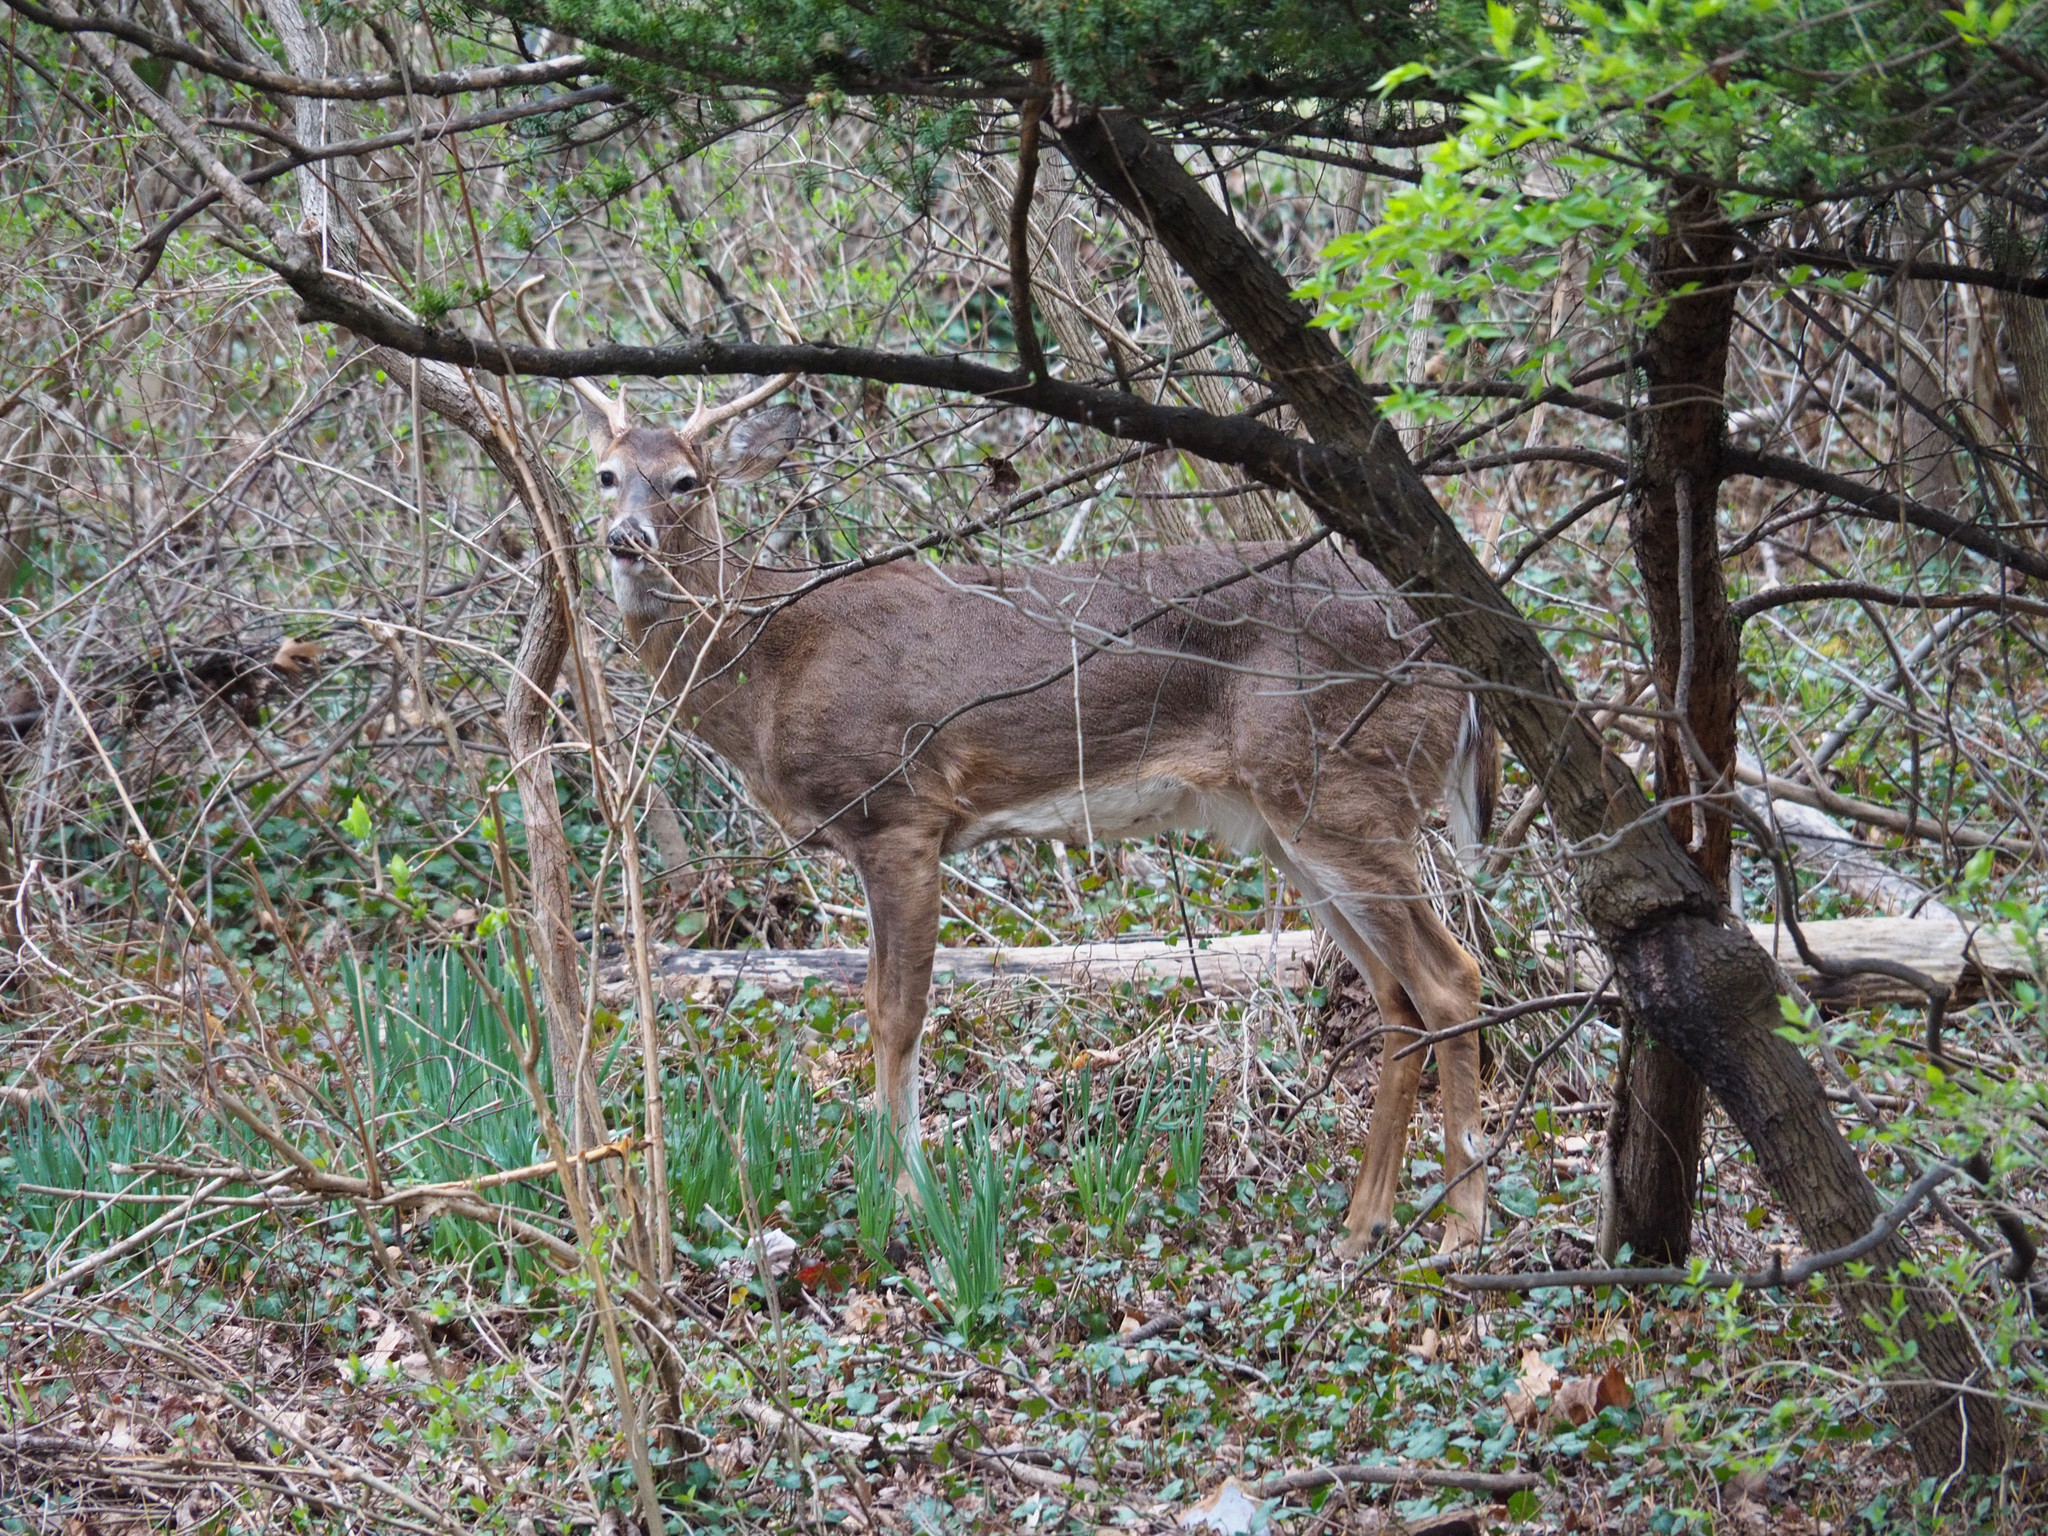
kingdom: Animalia
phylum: Chordata
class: Mammalia
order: Artiodactyla
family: Cervidae
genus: Odocoileus
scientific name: Odocoileus virginianus
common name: White-tailed deer
